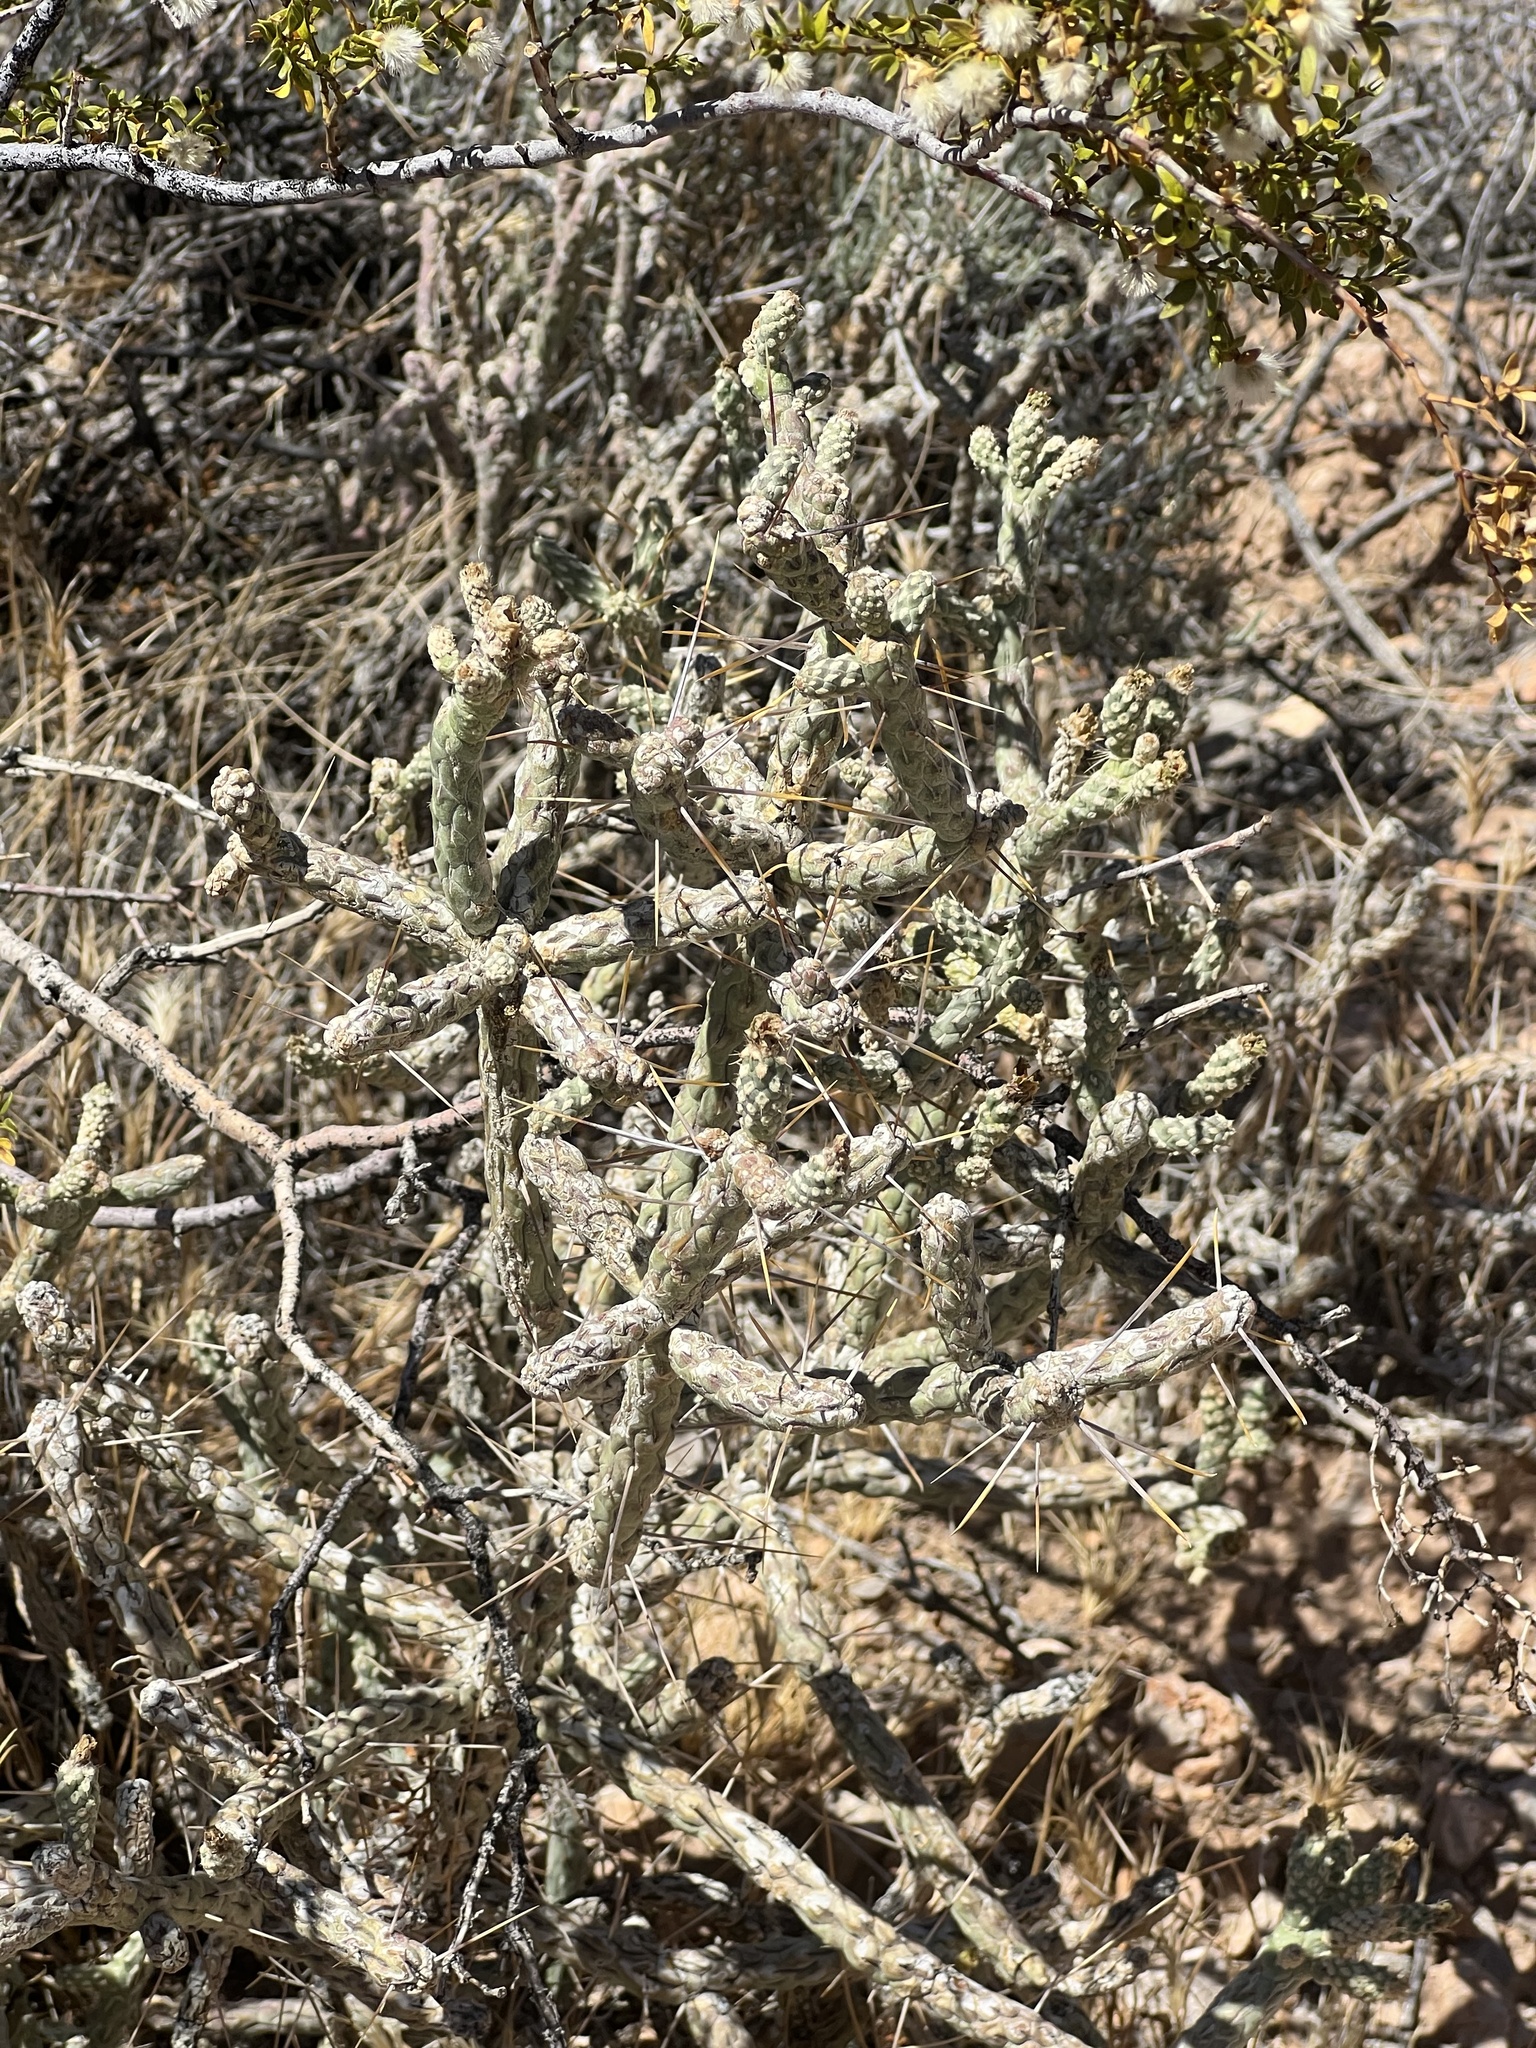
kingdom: Plantae
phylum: Tracheophyta
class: Magnoliopsida
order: Caryophyllales
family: Cactaceae
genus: Cylindropuntia
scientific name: Cylindropuntia ramosissima
